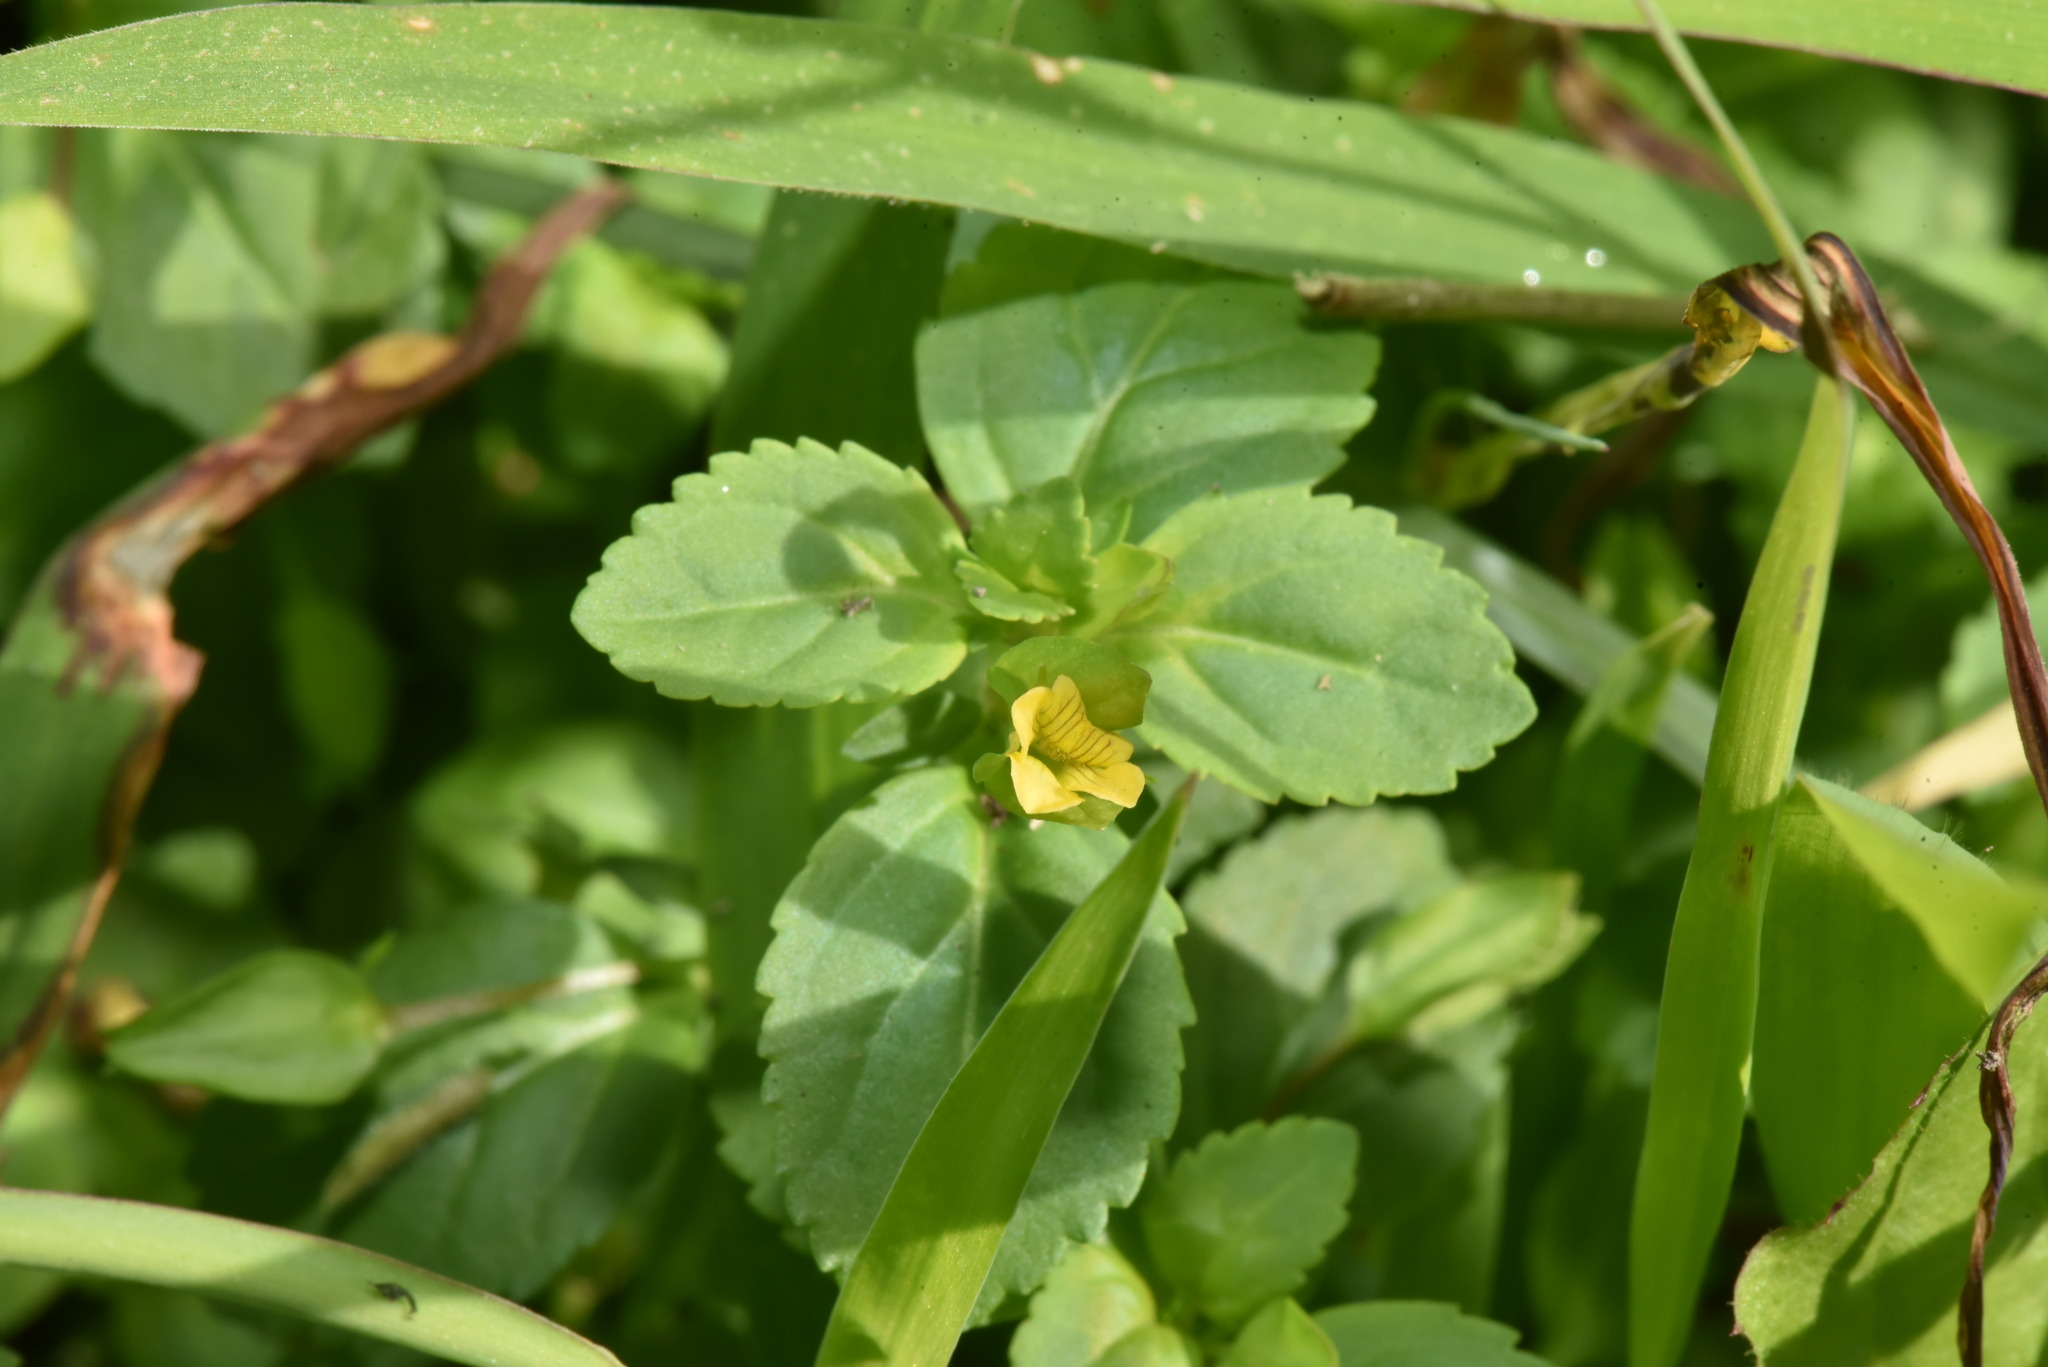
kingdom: Plantae
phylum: Tracheophyta
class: Magnoliopsida
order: Lamiales
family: Plantaginaceae
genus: Mecardonia
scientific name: Mecardonia procumbens
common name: Baby jump-up
